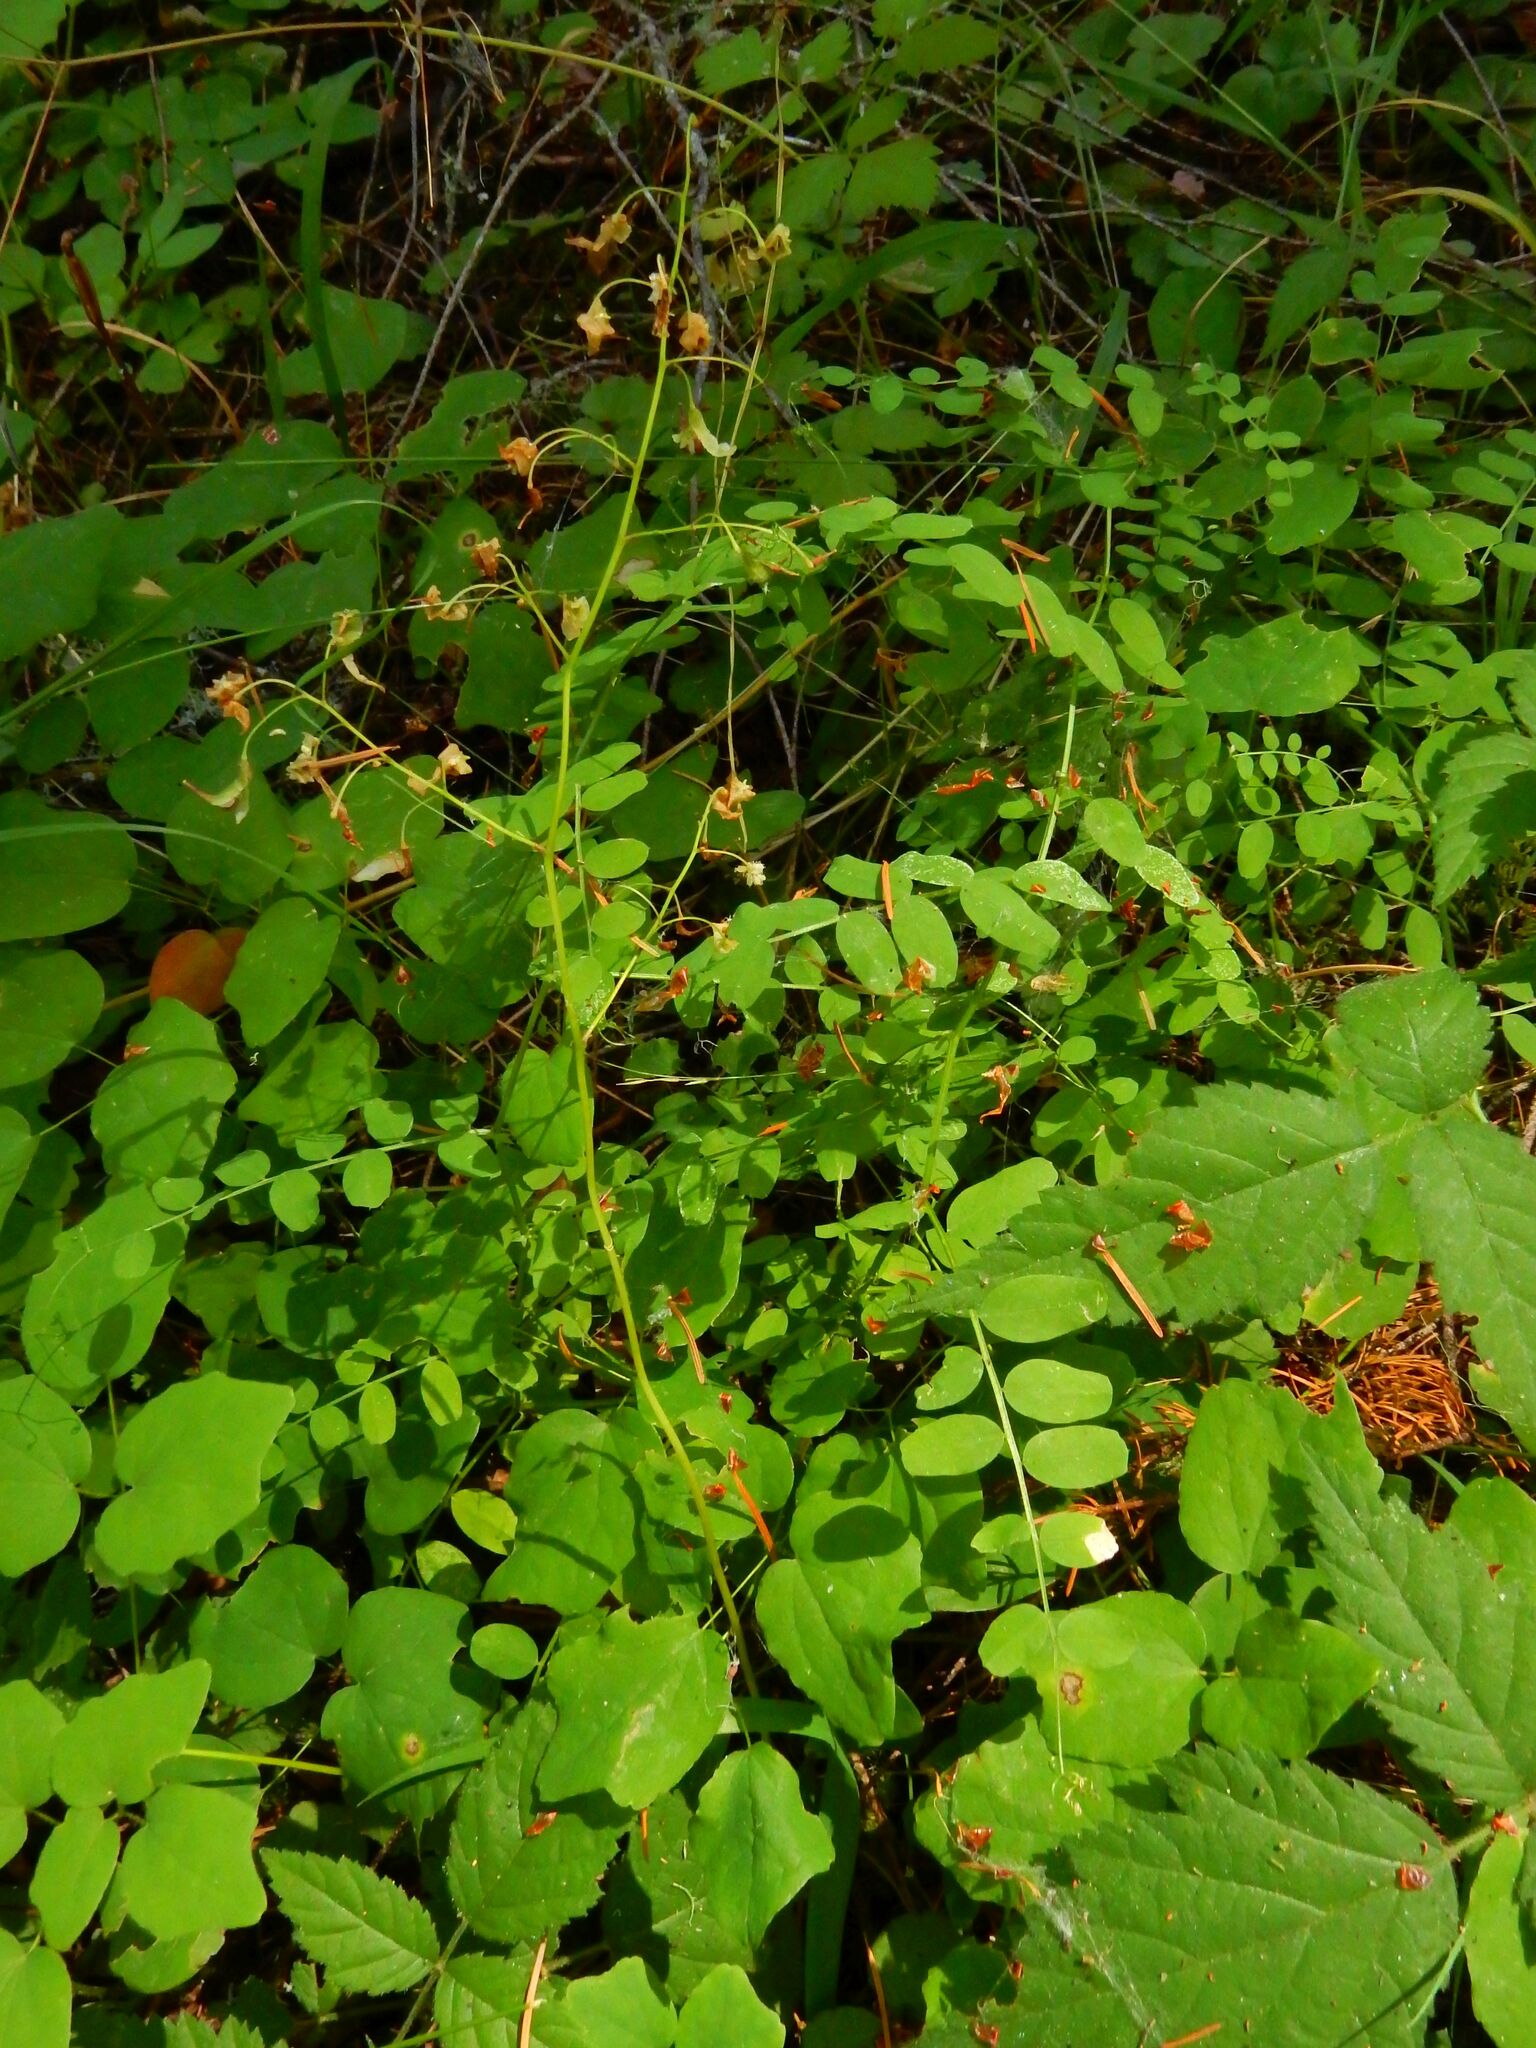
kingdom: Plantae
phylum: Tracheophyta
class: Magnoliopsida
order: Ranunculales
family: Berberidaceae
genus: Vancouveria
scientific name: Vancouveria hexandra
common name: Northern inside-out-flower
